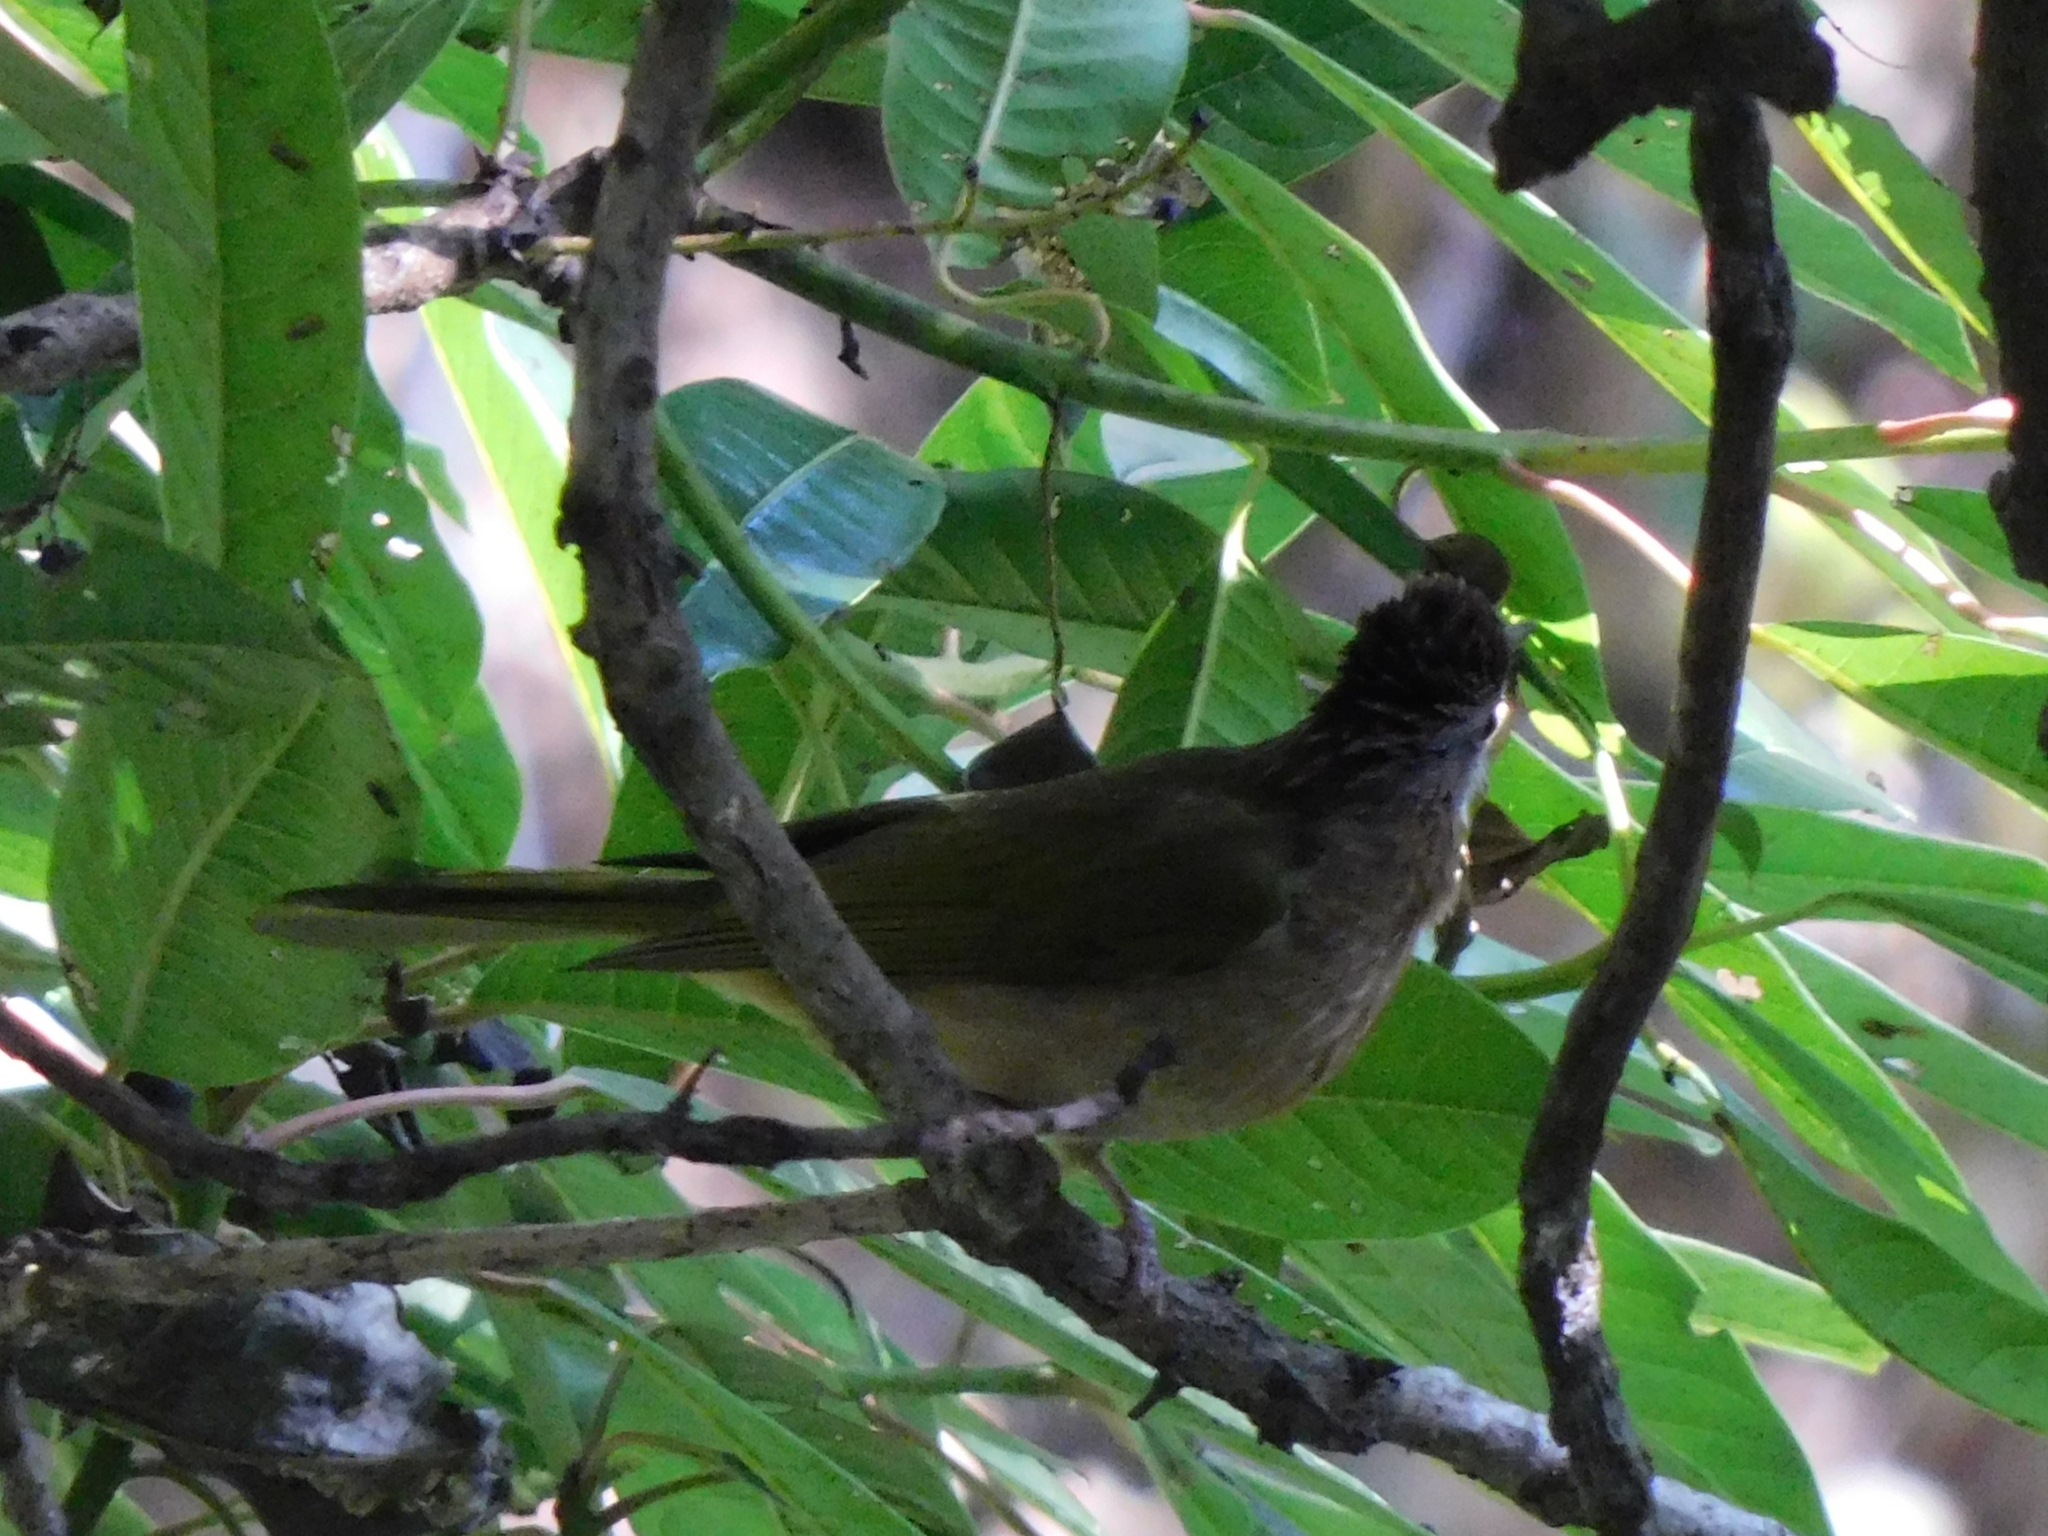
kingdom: Animalia
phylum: Chordata
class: Aves
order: Passeriformes
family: Pycnonotidae
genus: Ixos
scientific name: Ixos mcclellandii
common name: Mountain bulbul
